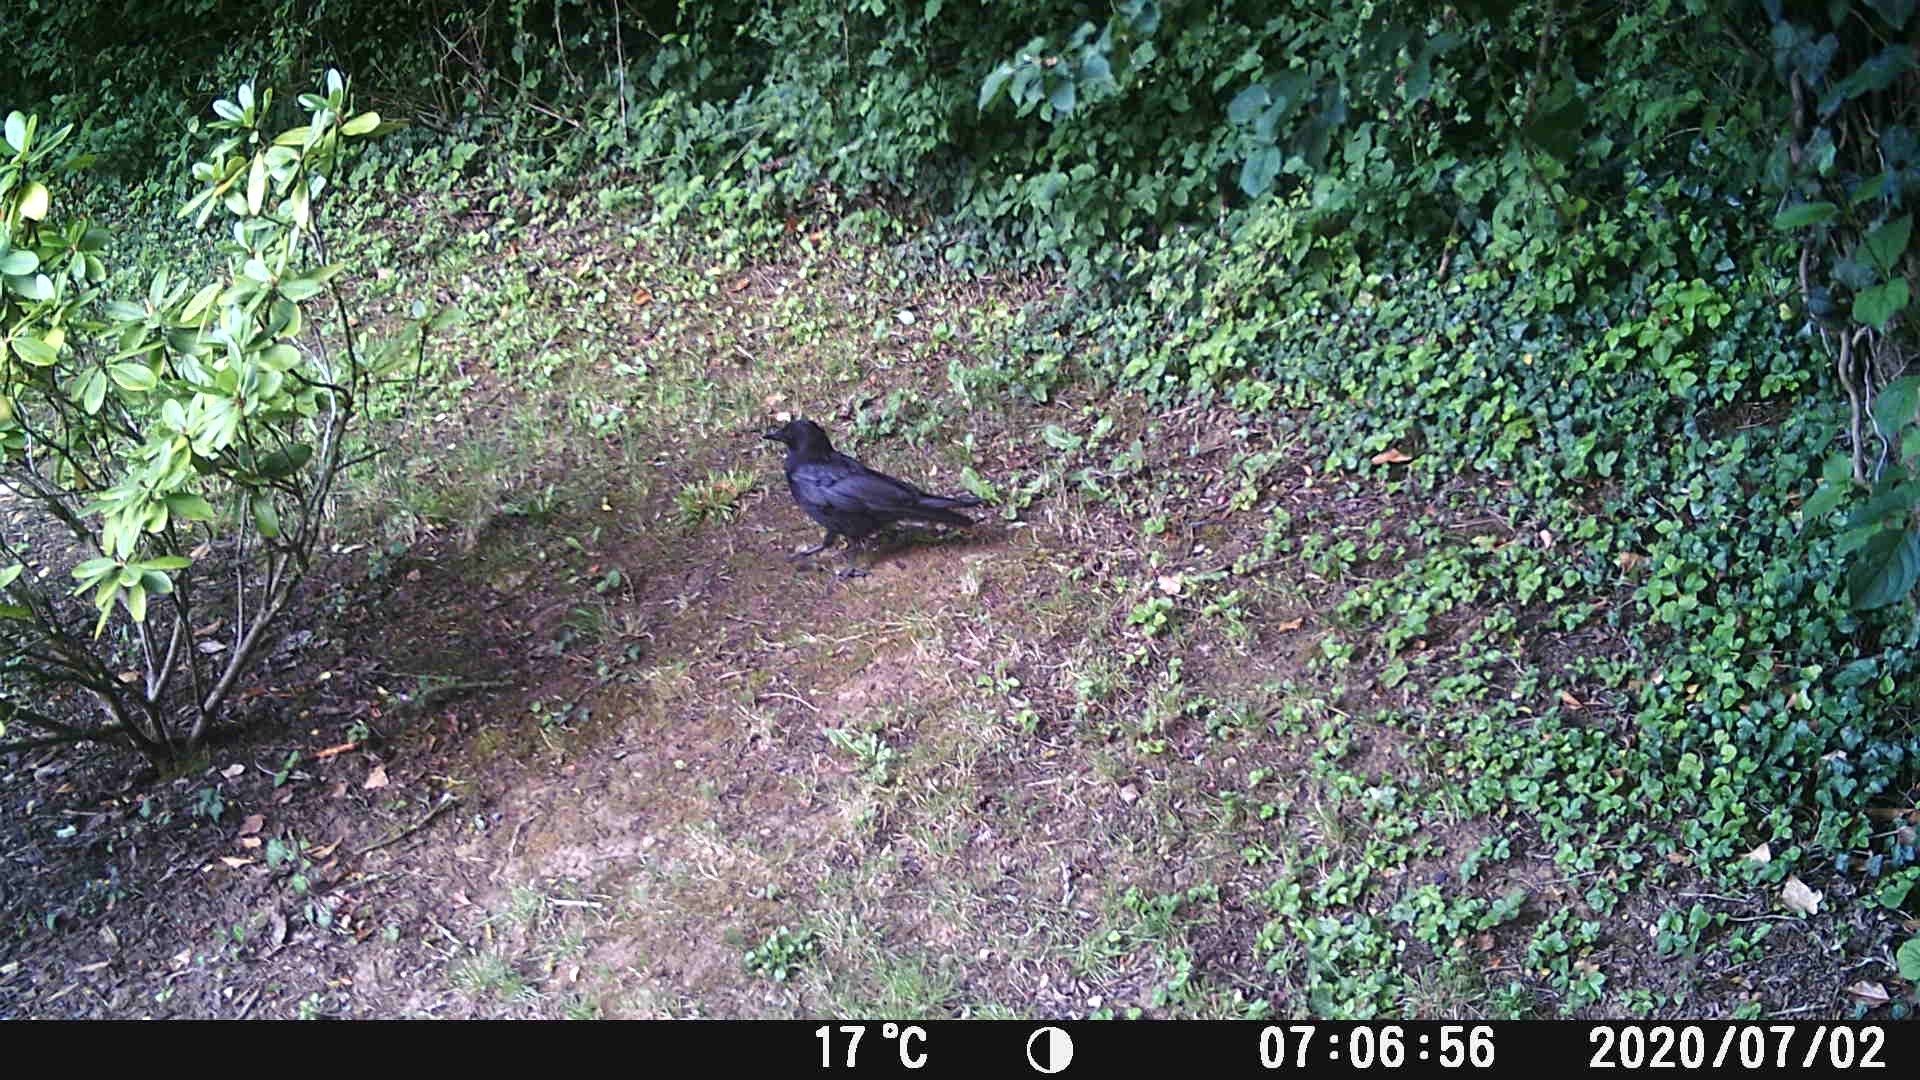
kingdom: Animalia
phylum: Chordata
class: Aves
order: Passeriformes
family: Corvidae
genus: Corvus
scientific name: Corvus corone
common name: Carrion crow
